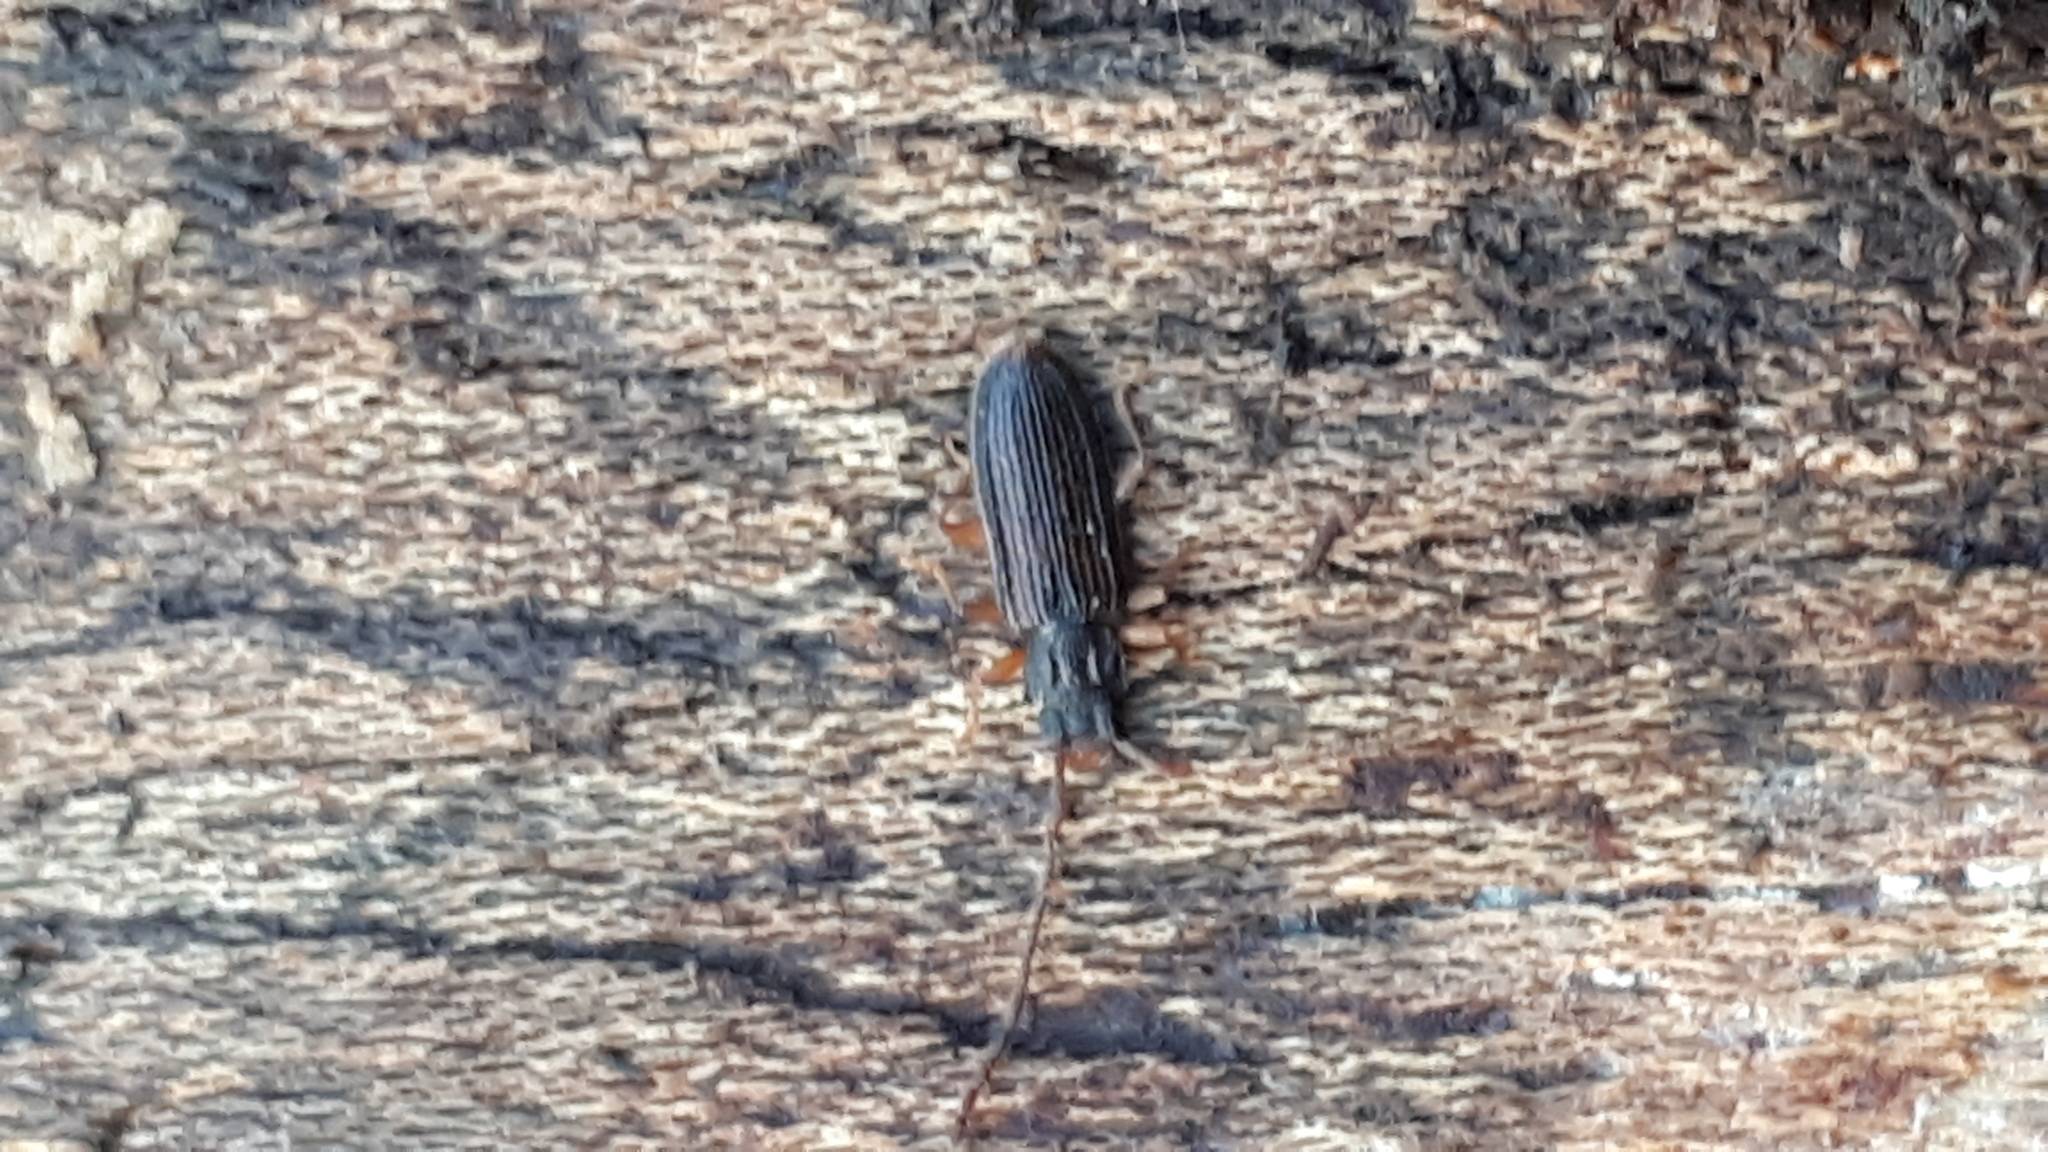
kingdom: Animalia
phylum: Arthropoda
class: Insecta
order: Coleoptera
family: Silvanidae
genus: Uleiota
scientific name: Uleiota planatus
